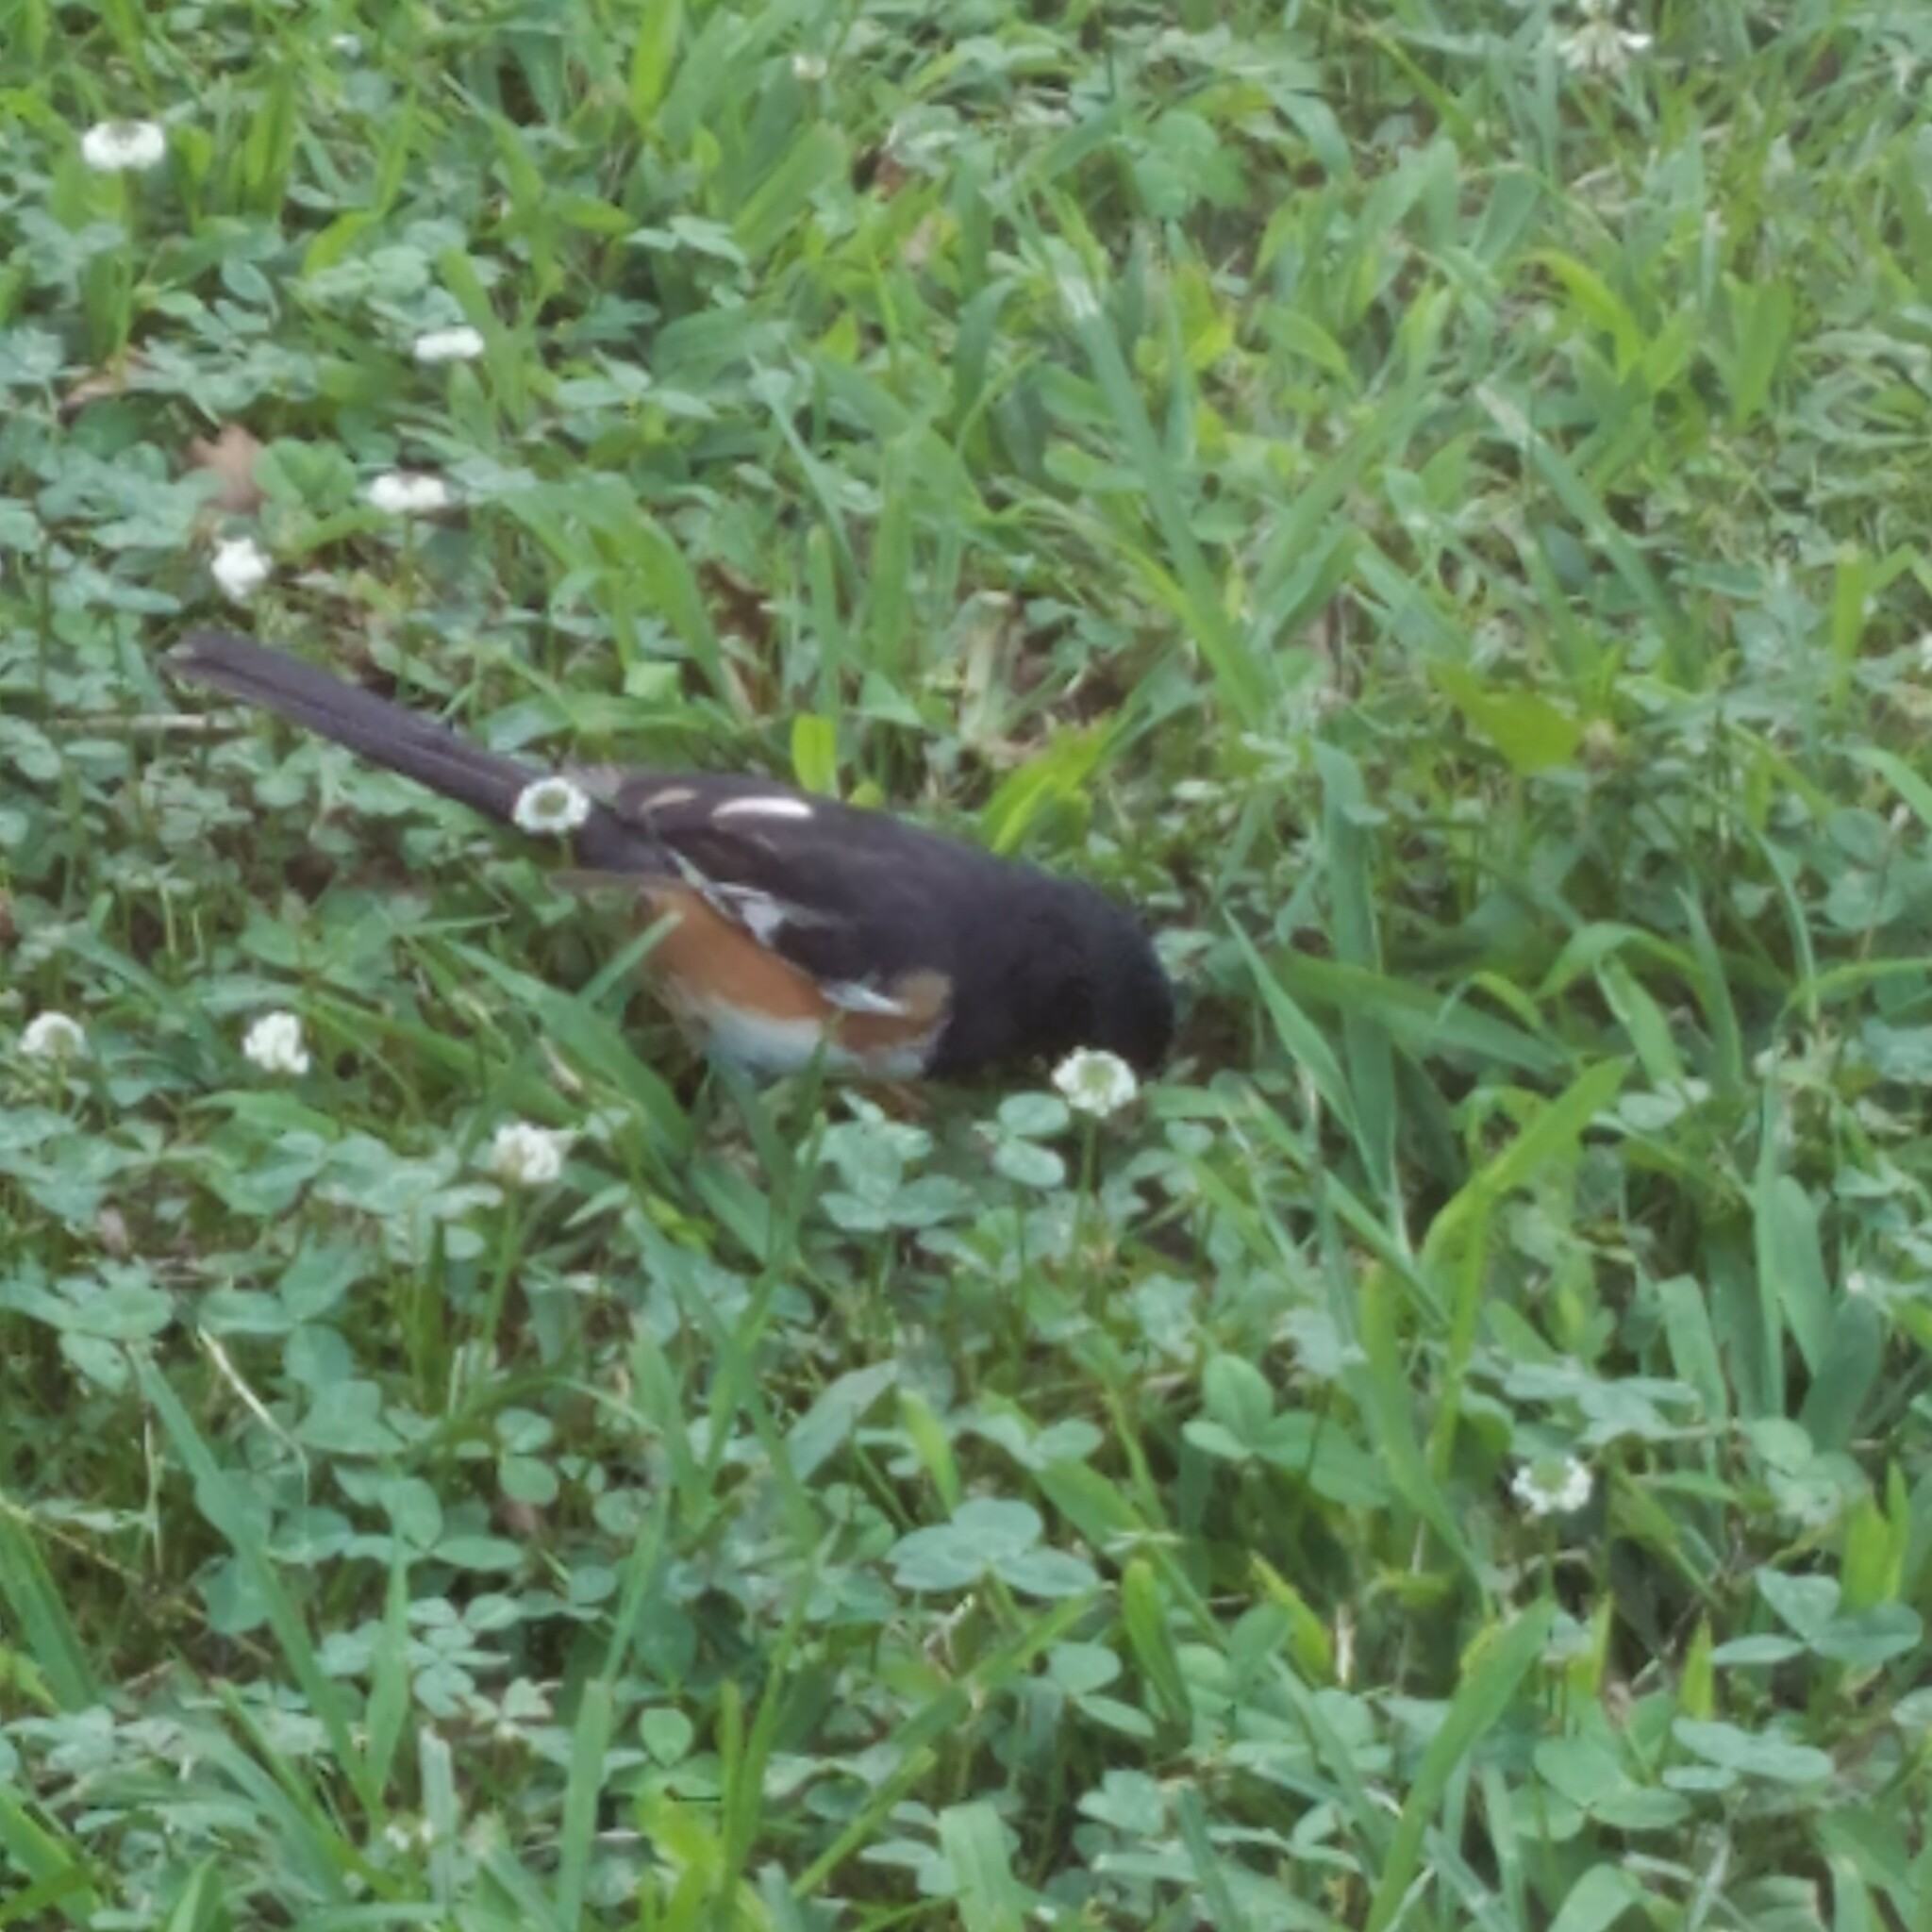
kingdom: Animalia
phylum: Chordata
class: Aves
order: Passeriformes
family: Passerellidae
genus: Pipilo
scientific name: Pipilo erythrophthalmus
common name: Eastern towhee
